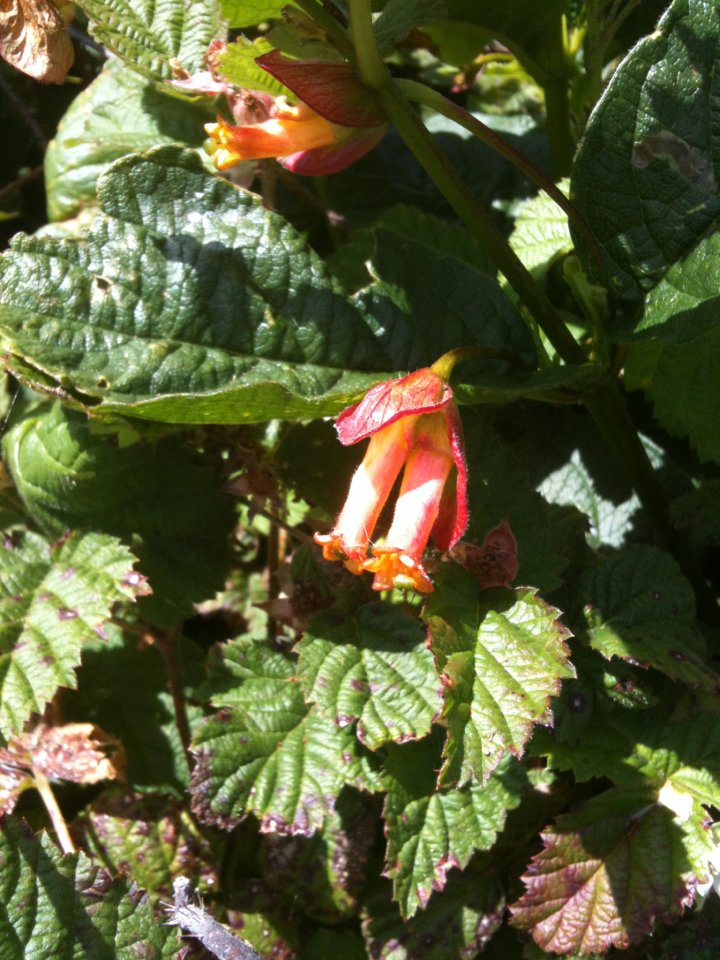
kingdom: Plantae
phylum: Tracheophyta
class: Magnoliopsida
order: Dipsacales
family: Caprifoliaceae
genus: Lonicera
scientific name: Lonicera involucrata
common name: Californian honeysuckle
